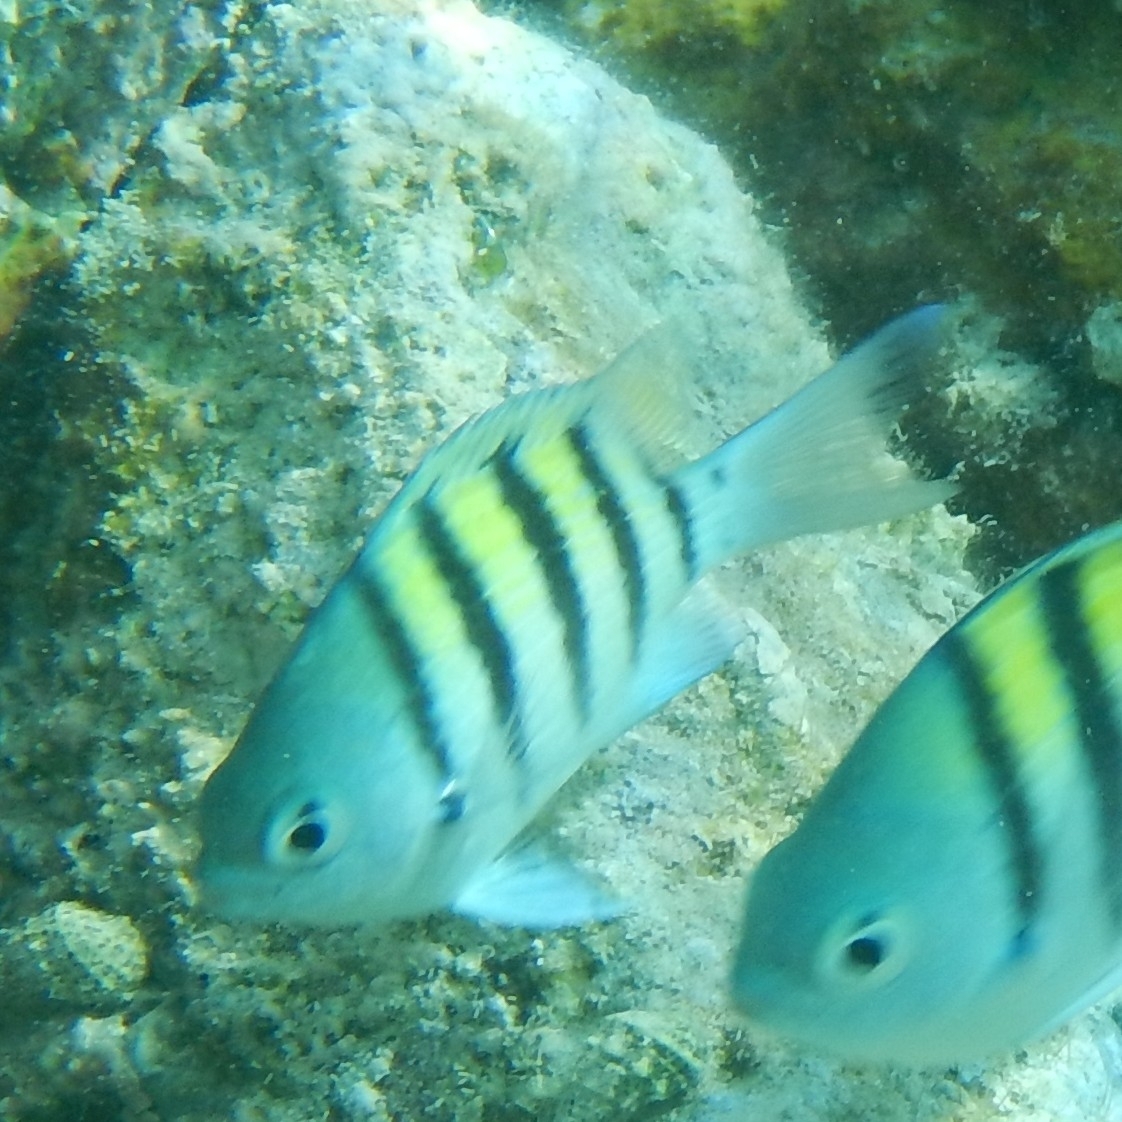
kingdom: Animalia
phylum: Chordata
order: Perciformes
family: Pomacentridae
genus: Abudefduf
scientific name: Abudefduf saxatilis
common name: Sergeant major
